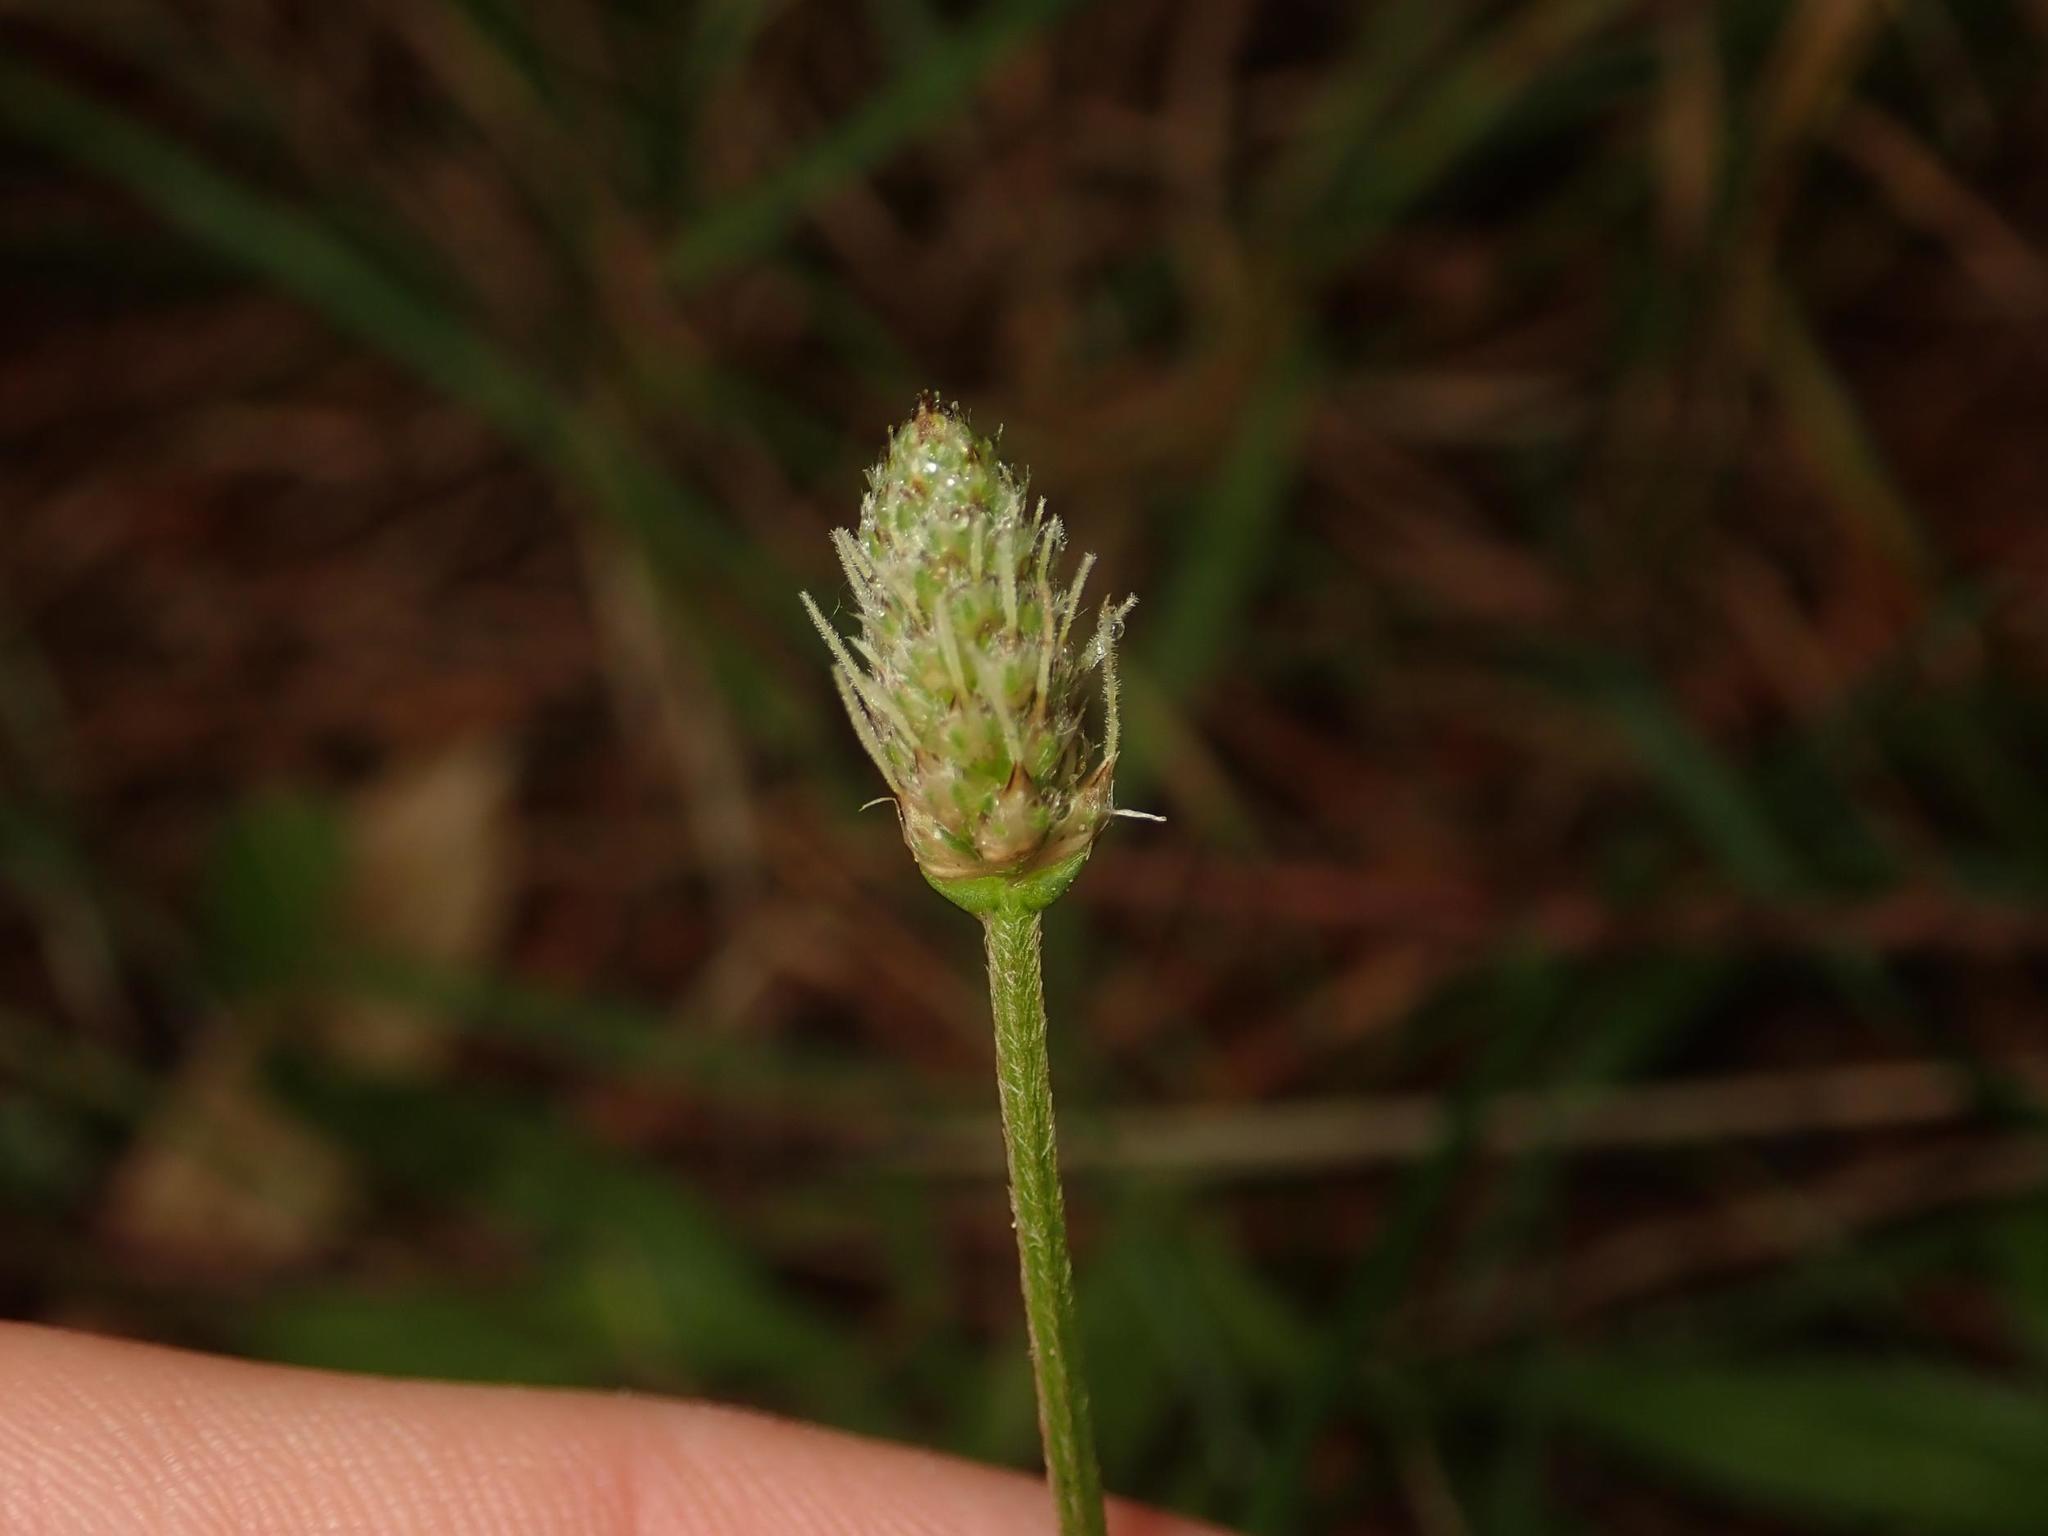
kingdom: Plantae
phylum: Tracheophyta
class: Magnoliopsida
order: Lamiales
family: Plantaginaceae
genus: Plantago
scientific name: Plantago lanceolata
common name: Ribwort plantain
